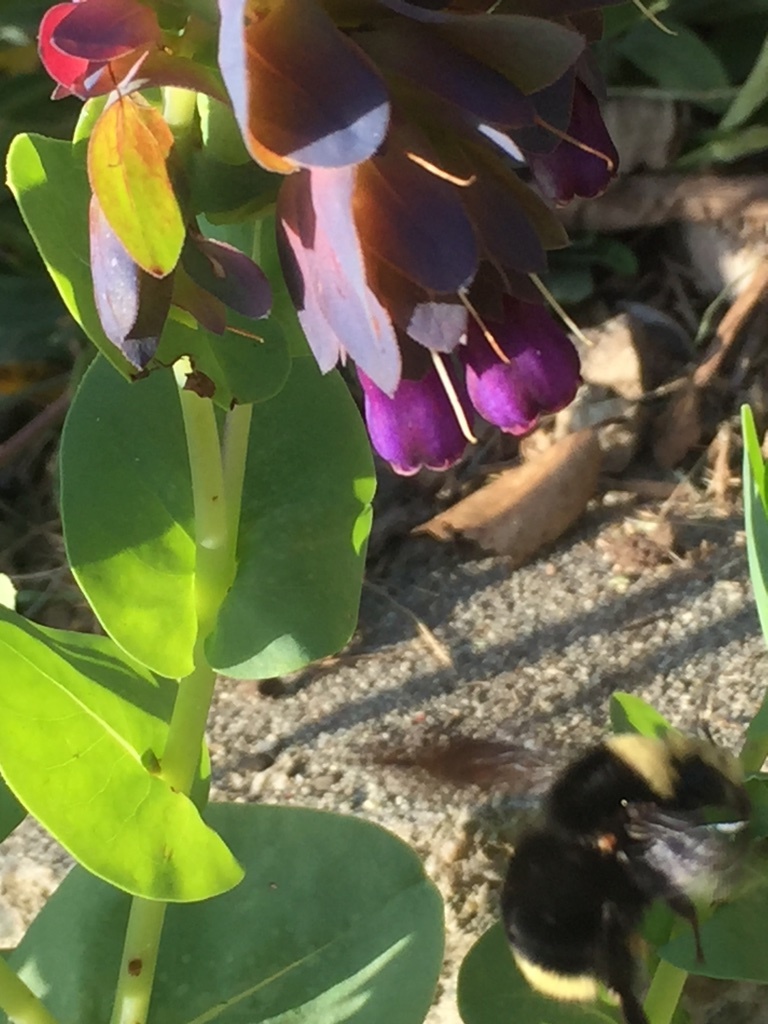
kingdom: Animalia
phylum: Arthropoda
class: Insecta
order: Hymenoptera
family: Apidae
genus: Bombus
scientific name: Bombus vosnesenskii
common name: Vosnesensky bumble bee
